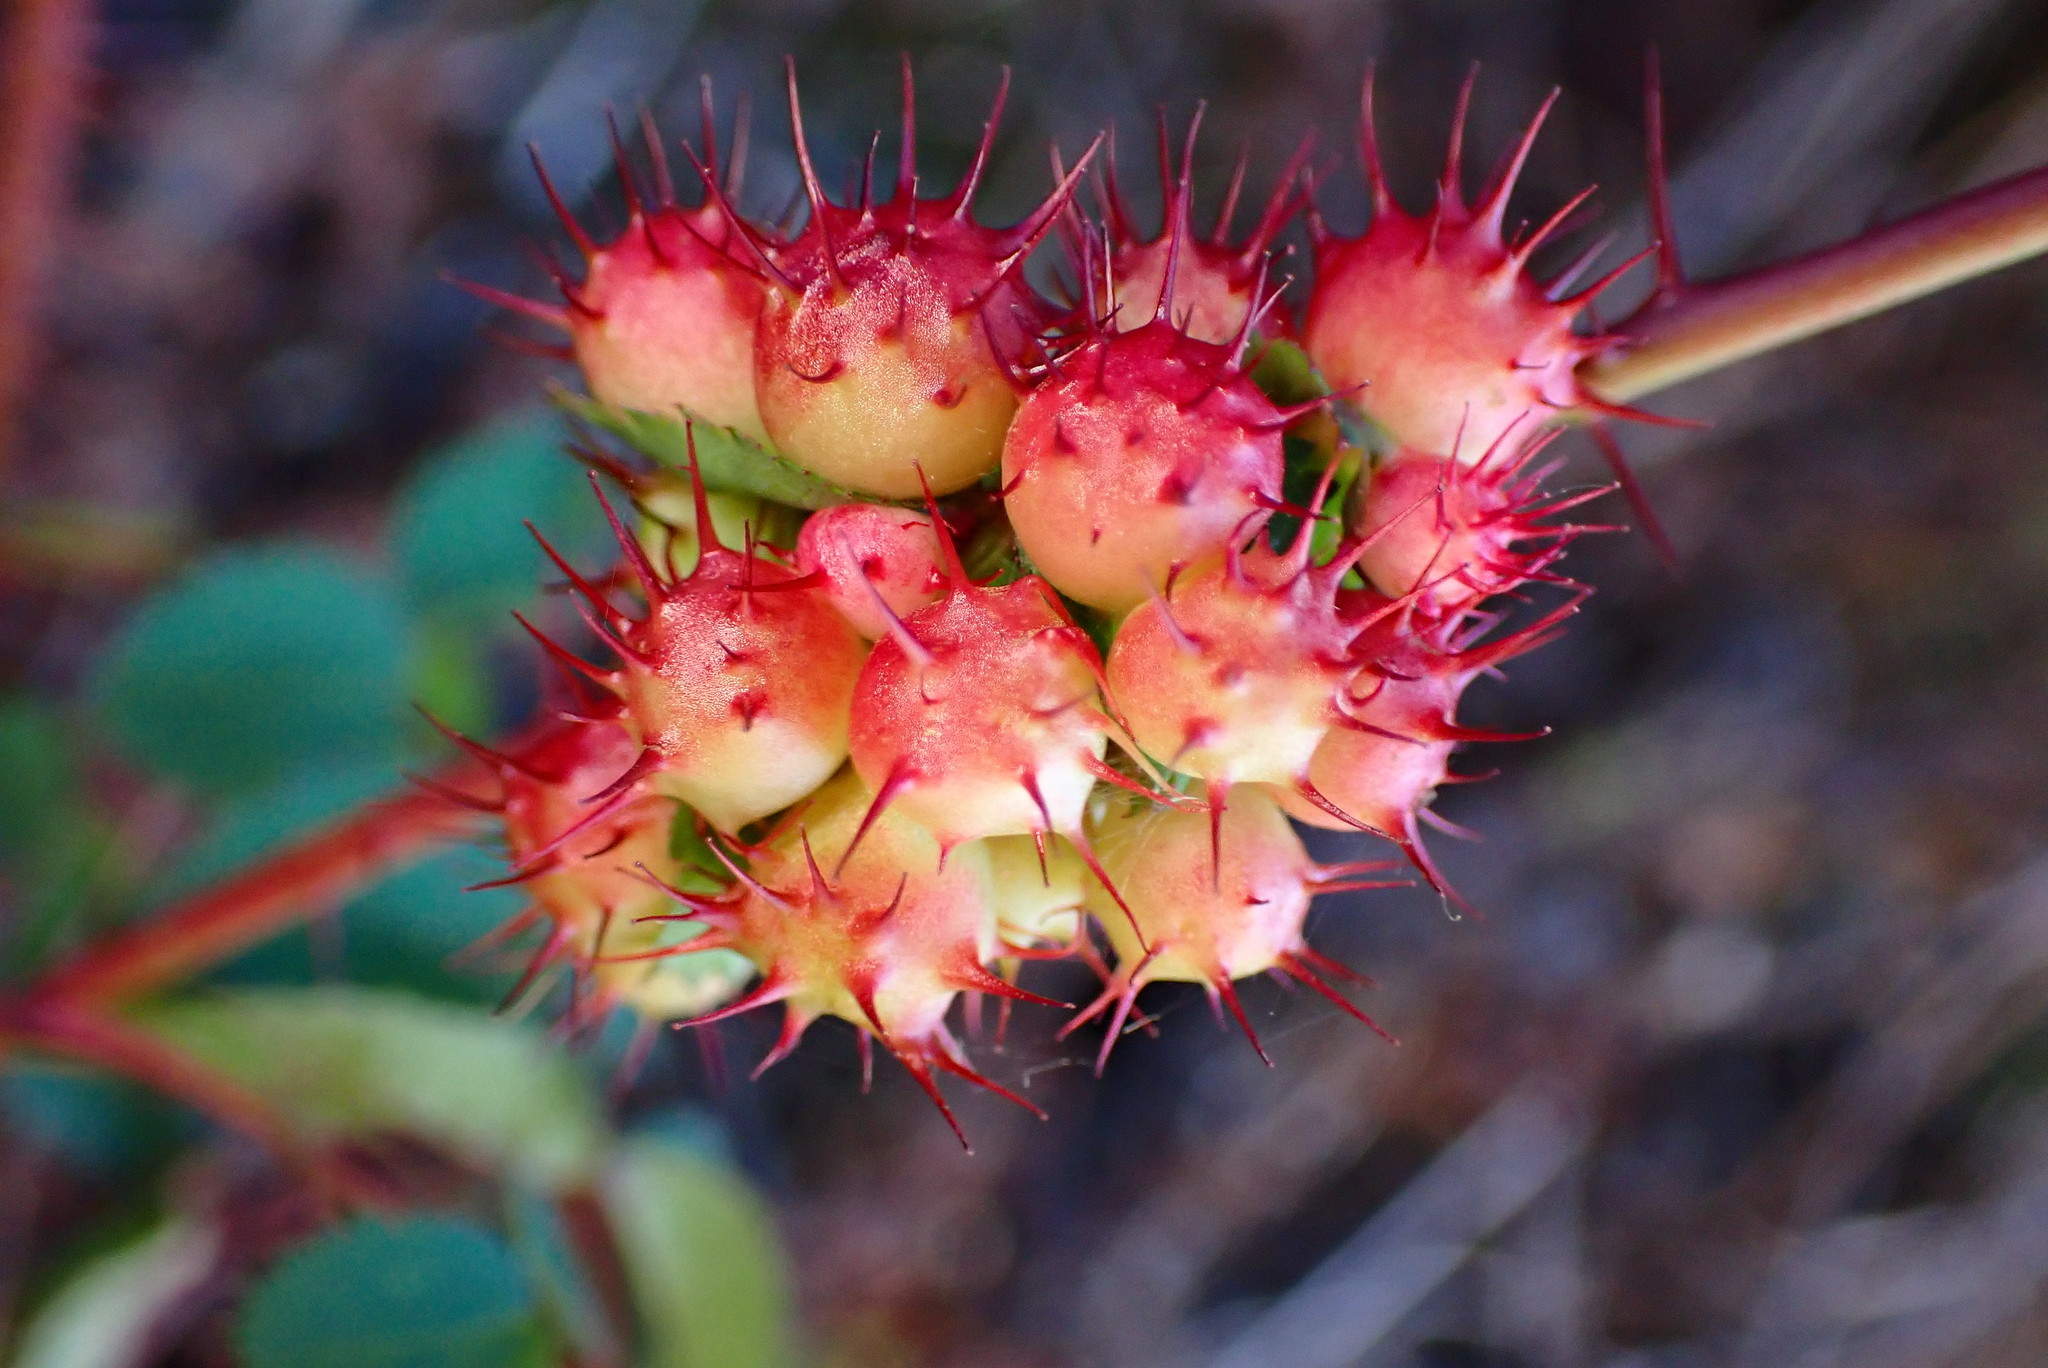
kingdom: Animalia
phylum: Arthropoda
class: Insecta
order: Hymenoptera
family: Cynipidae
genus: Diplolepis
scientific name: Diplolepis polita
